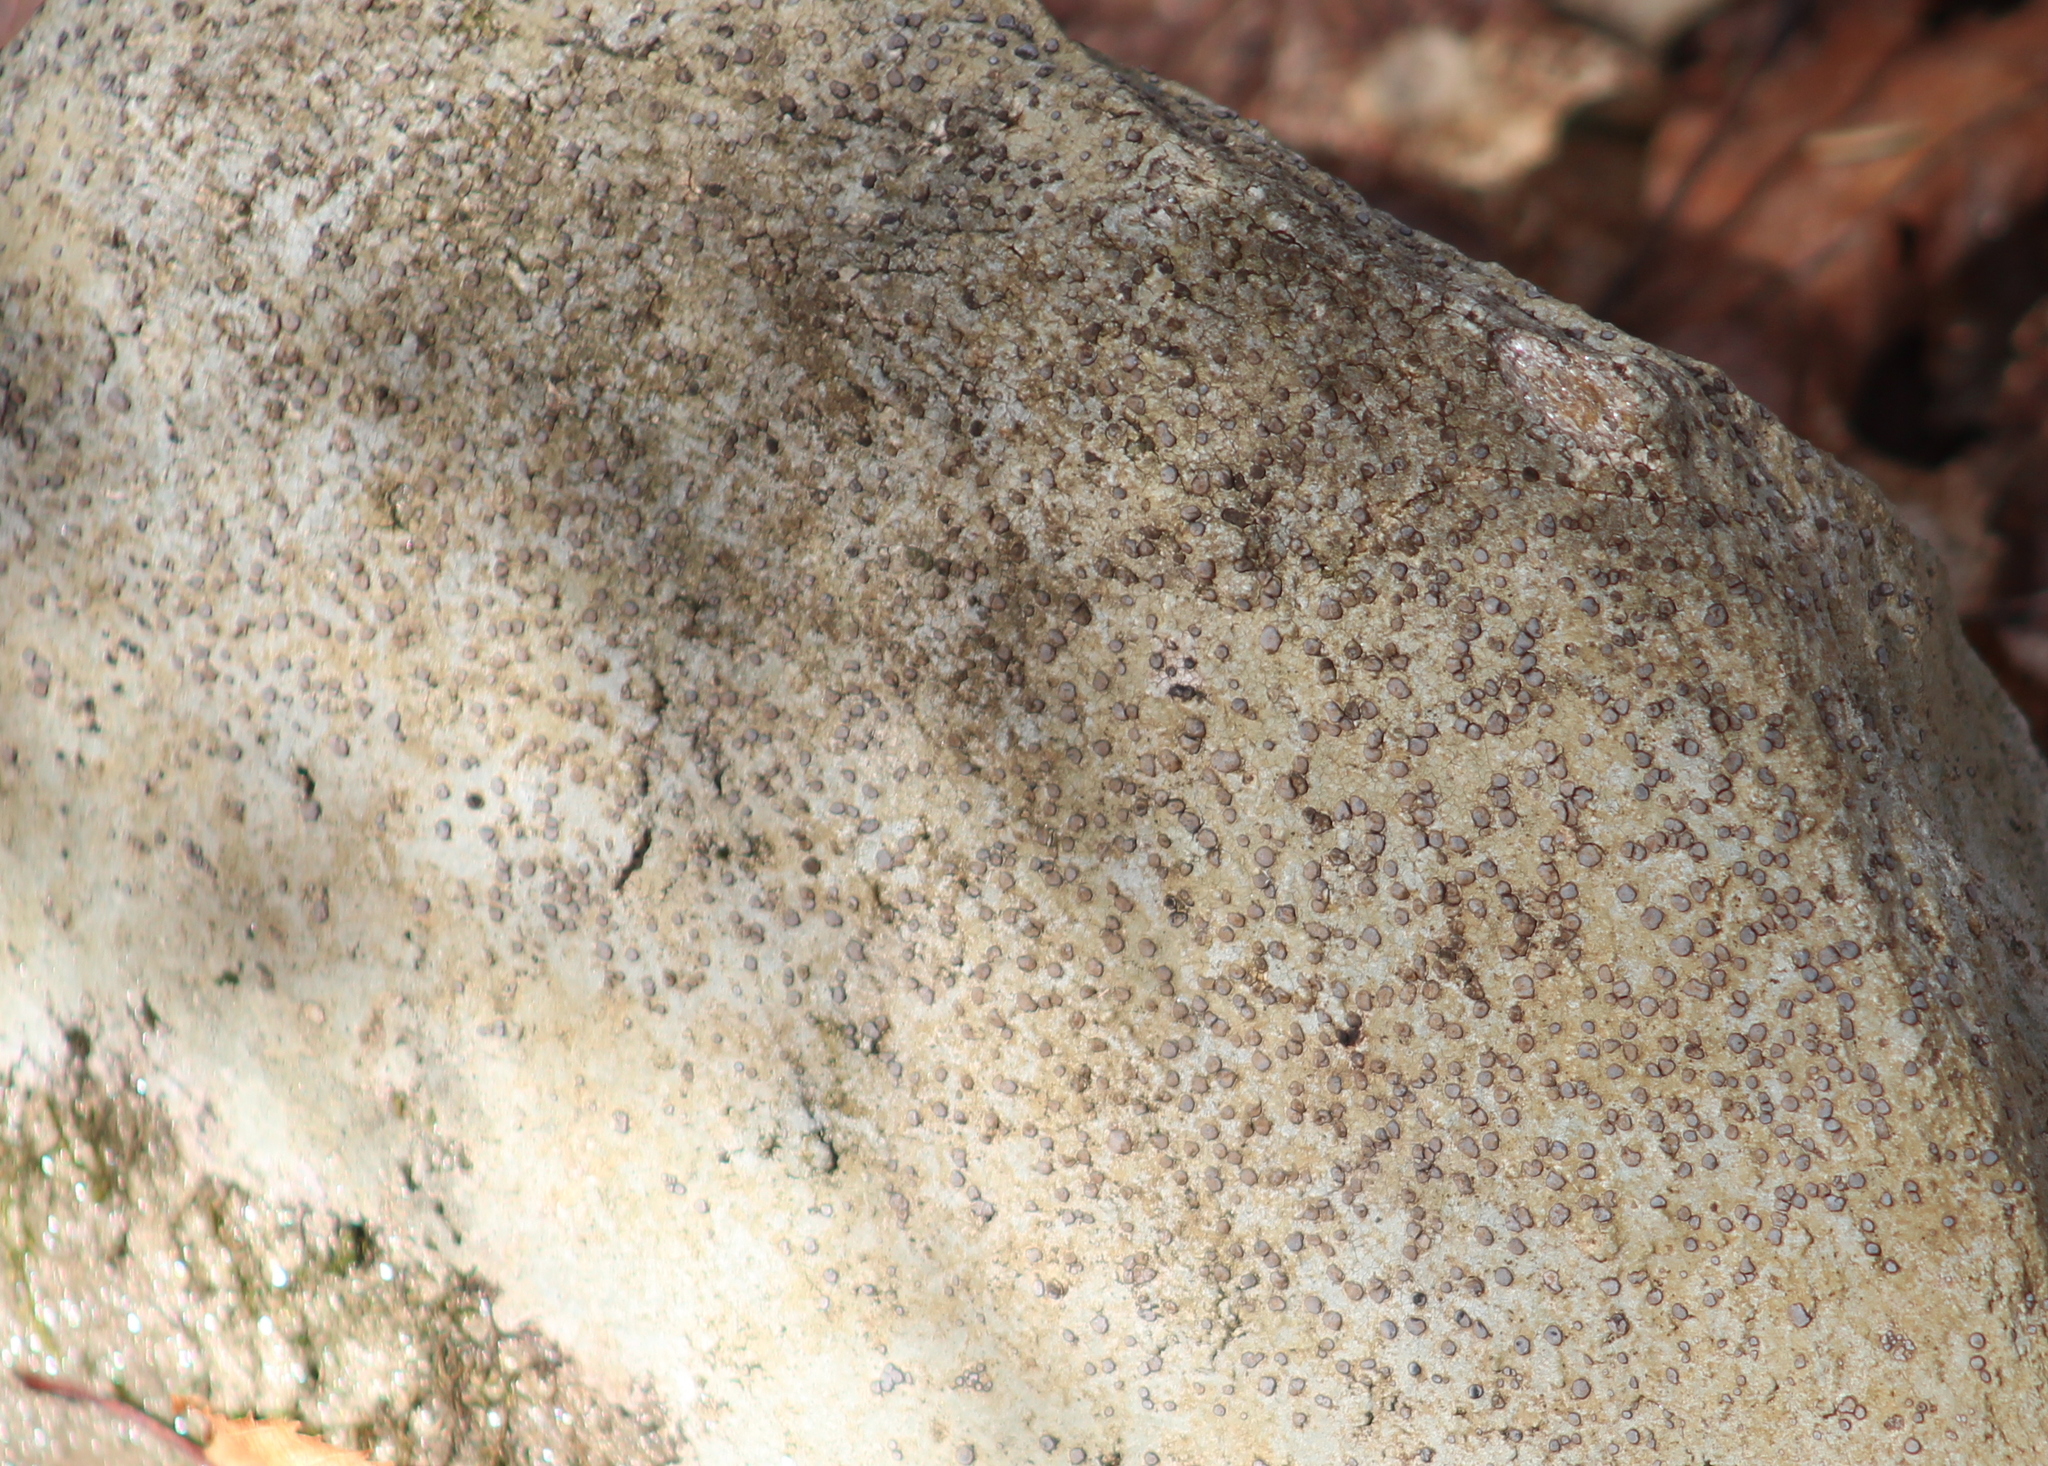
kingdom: Fungi
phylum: Ascomycota
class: Lecanoromycetes
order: Lecideales
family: Lecideaceae
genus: Porpidia
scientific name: Porpidia albocaerulescens
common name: Smokey-eyed boulder lichen
